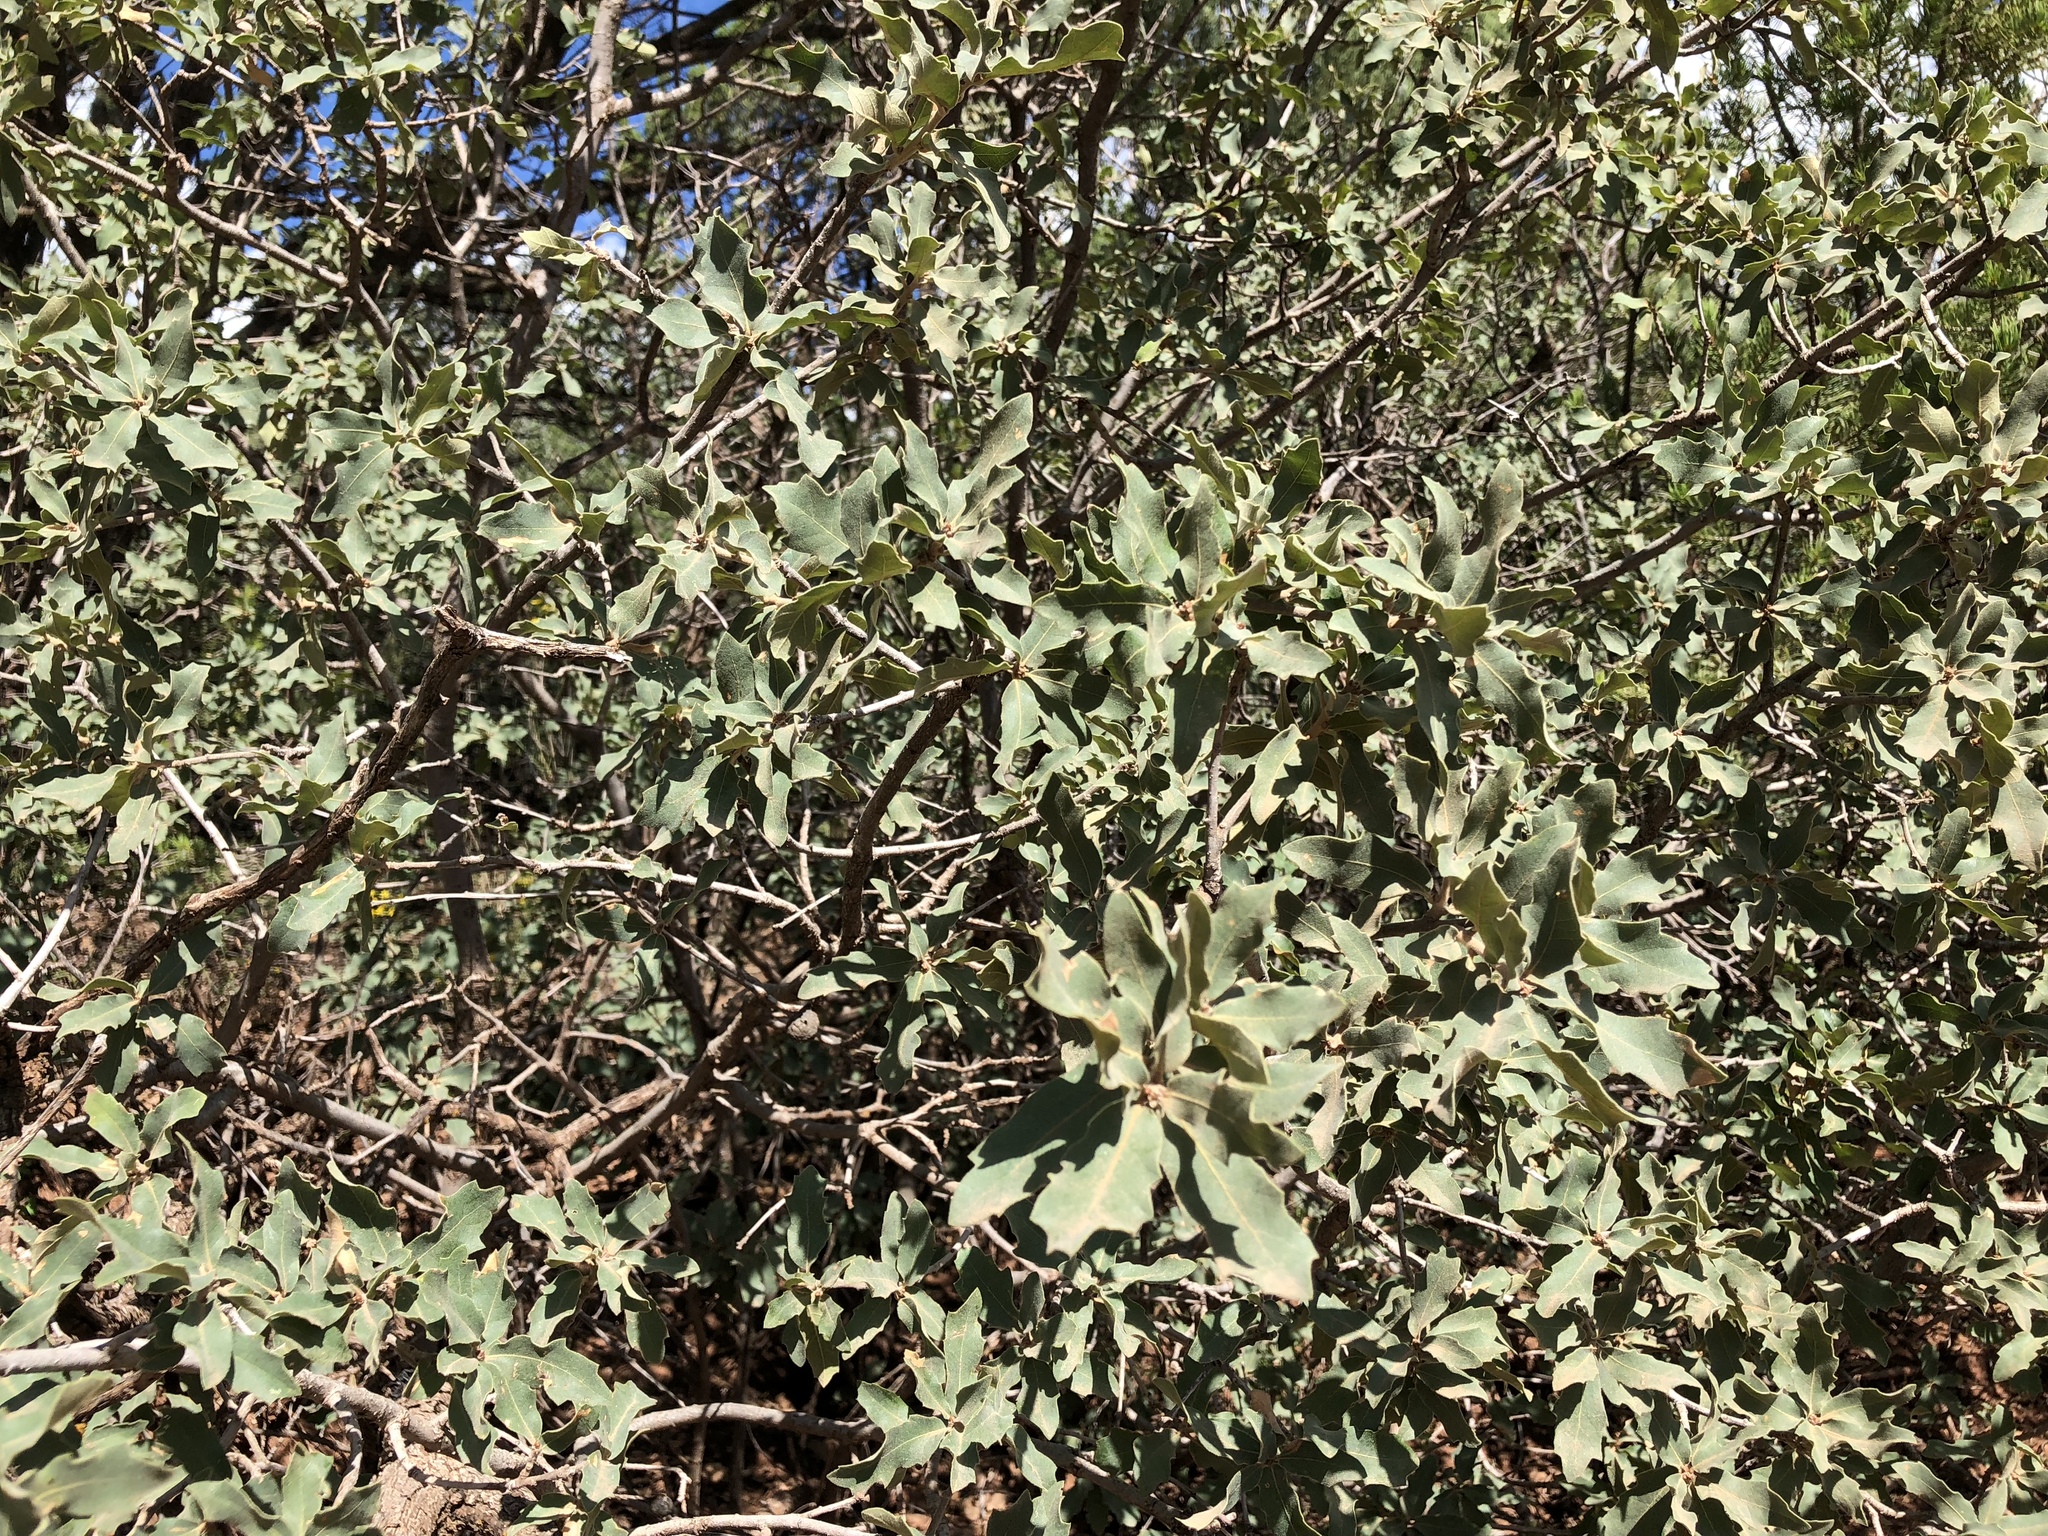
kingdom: Plantae
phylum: Tracheophyta
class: Magnoliopsida
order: Fagales
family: Fagaceae
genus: Quercus
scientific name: Quercus undulata
